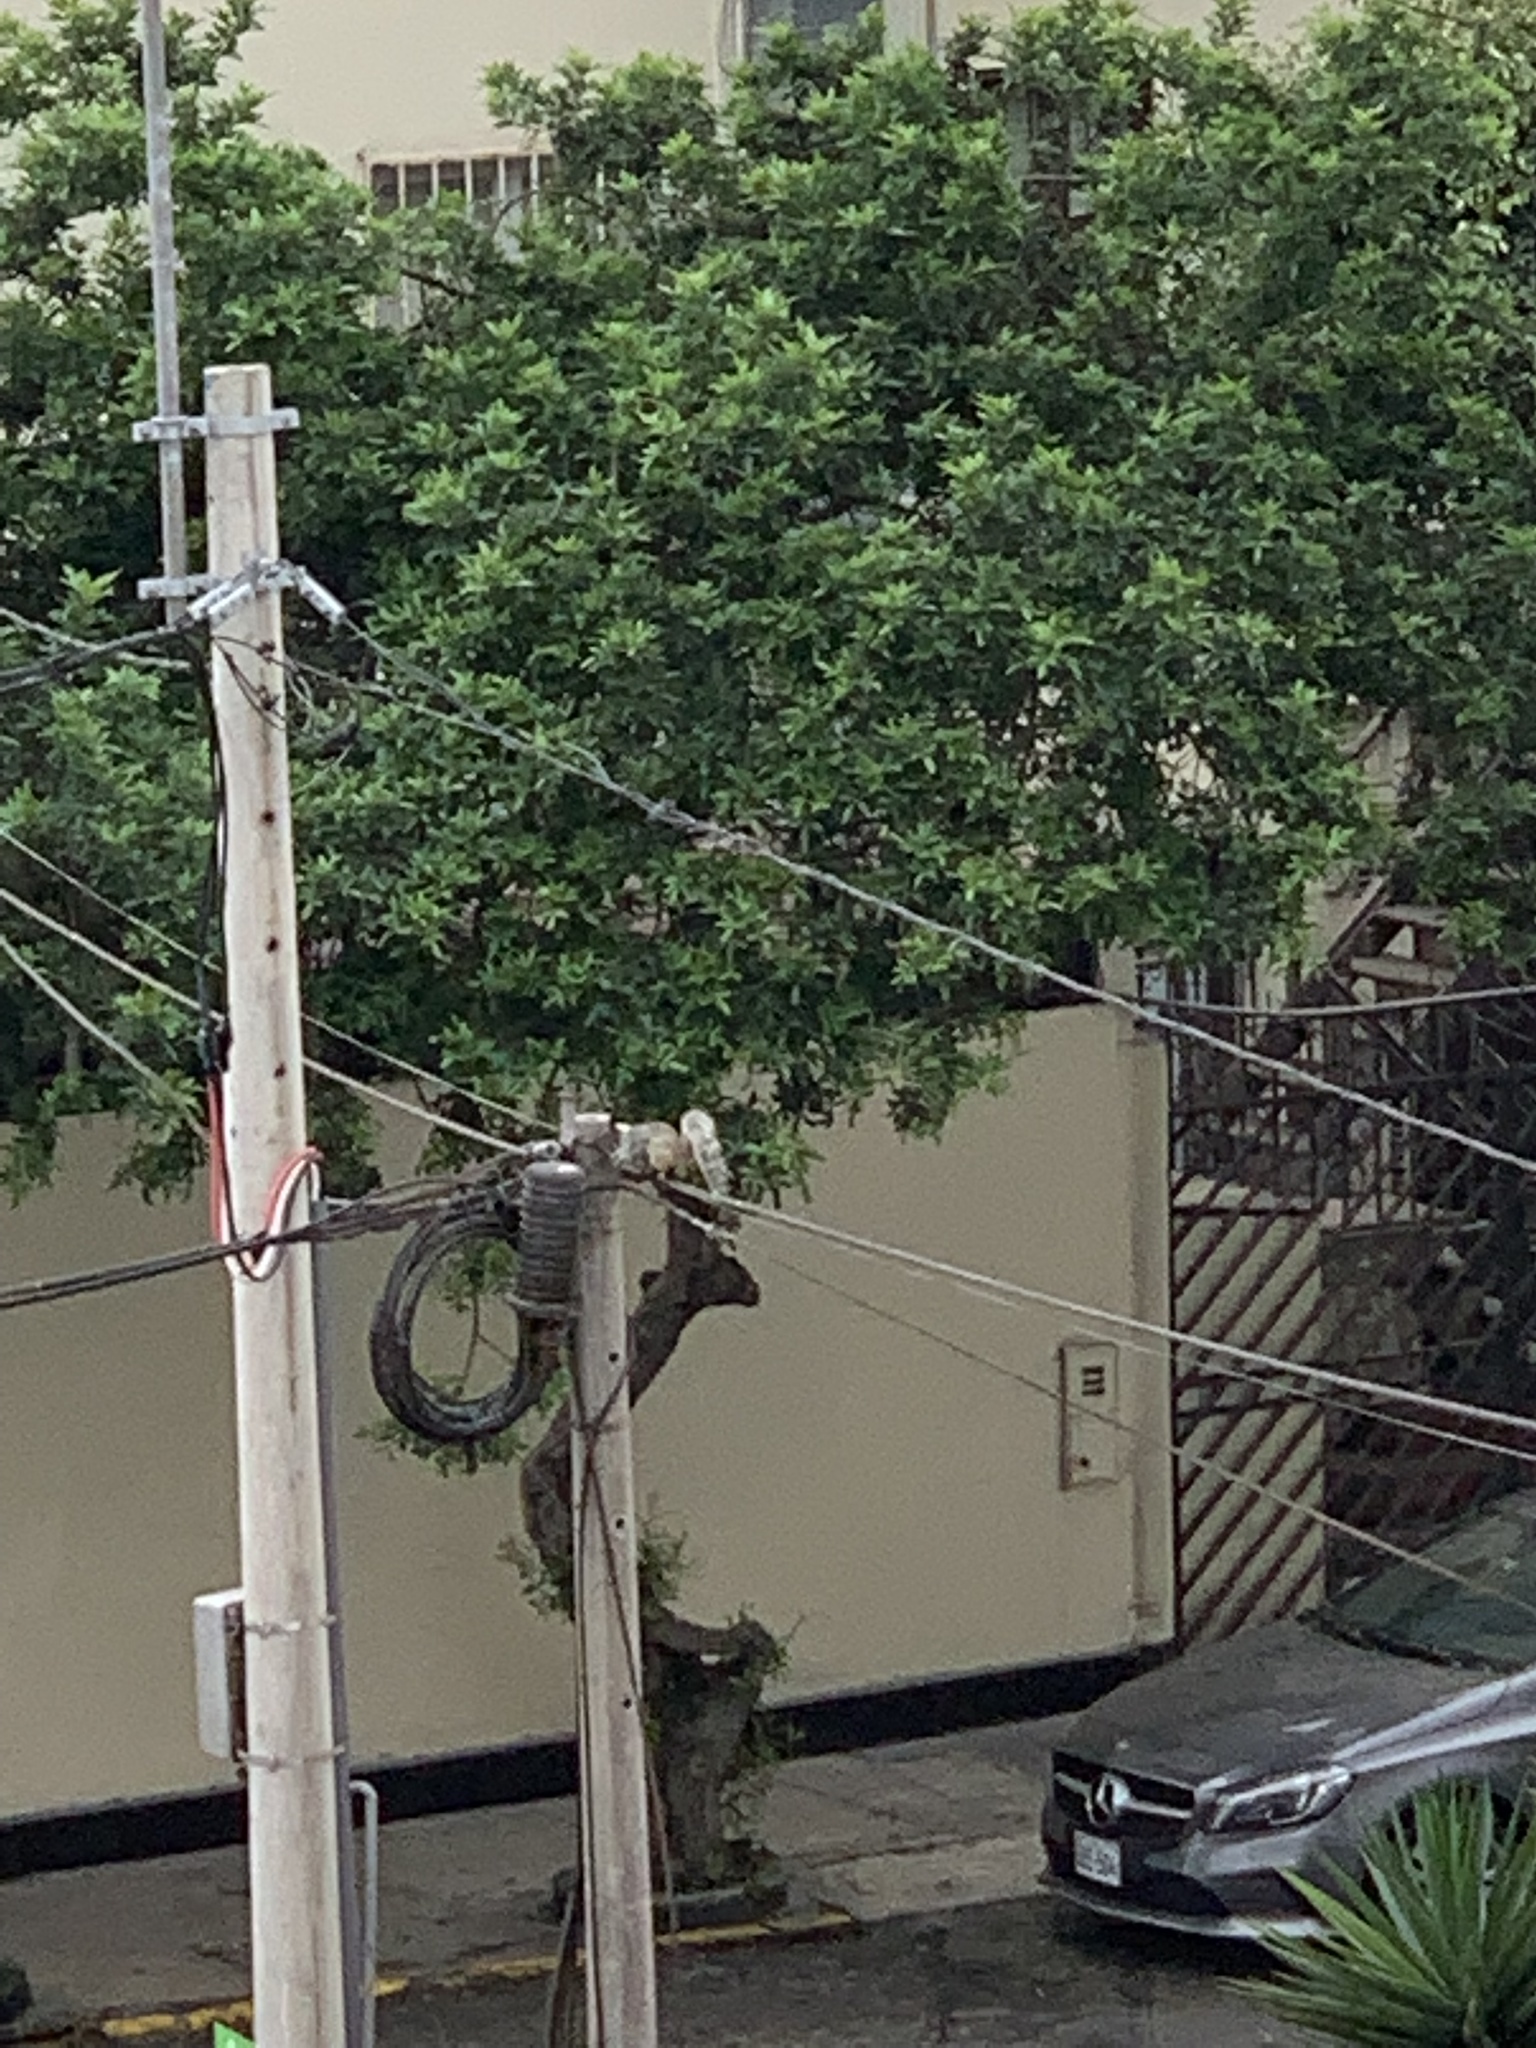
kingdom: Animalia
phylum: Chordata
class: Mammalia
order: Rodentia
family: Sciuridae
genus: Sciurus
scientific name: Sciurus stramineus
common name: Guayaquil squirrel
